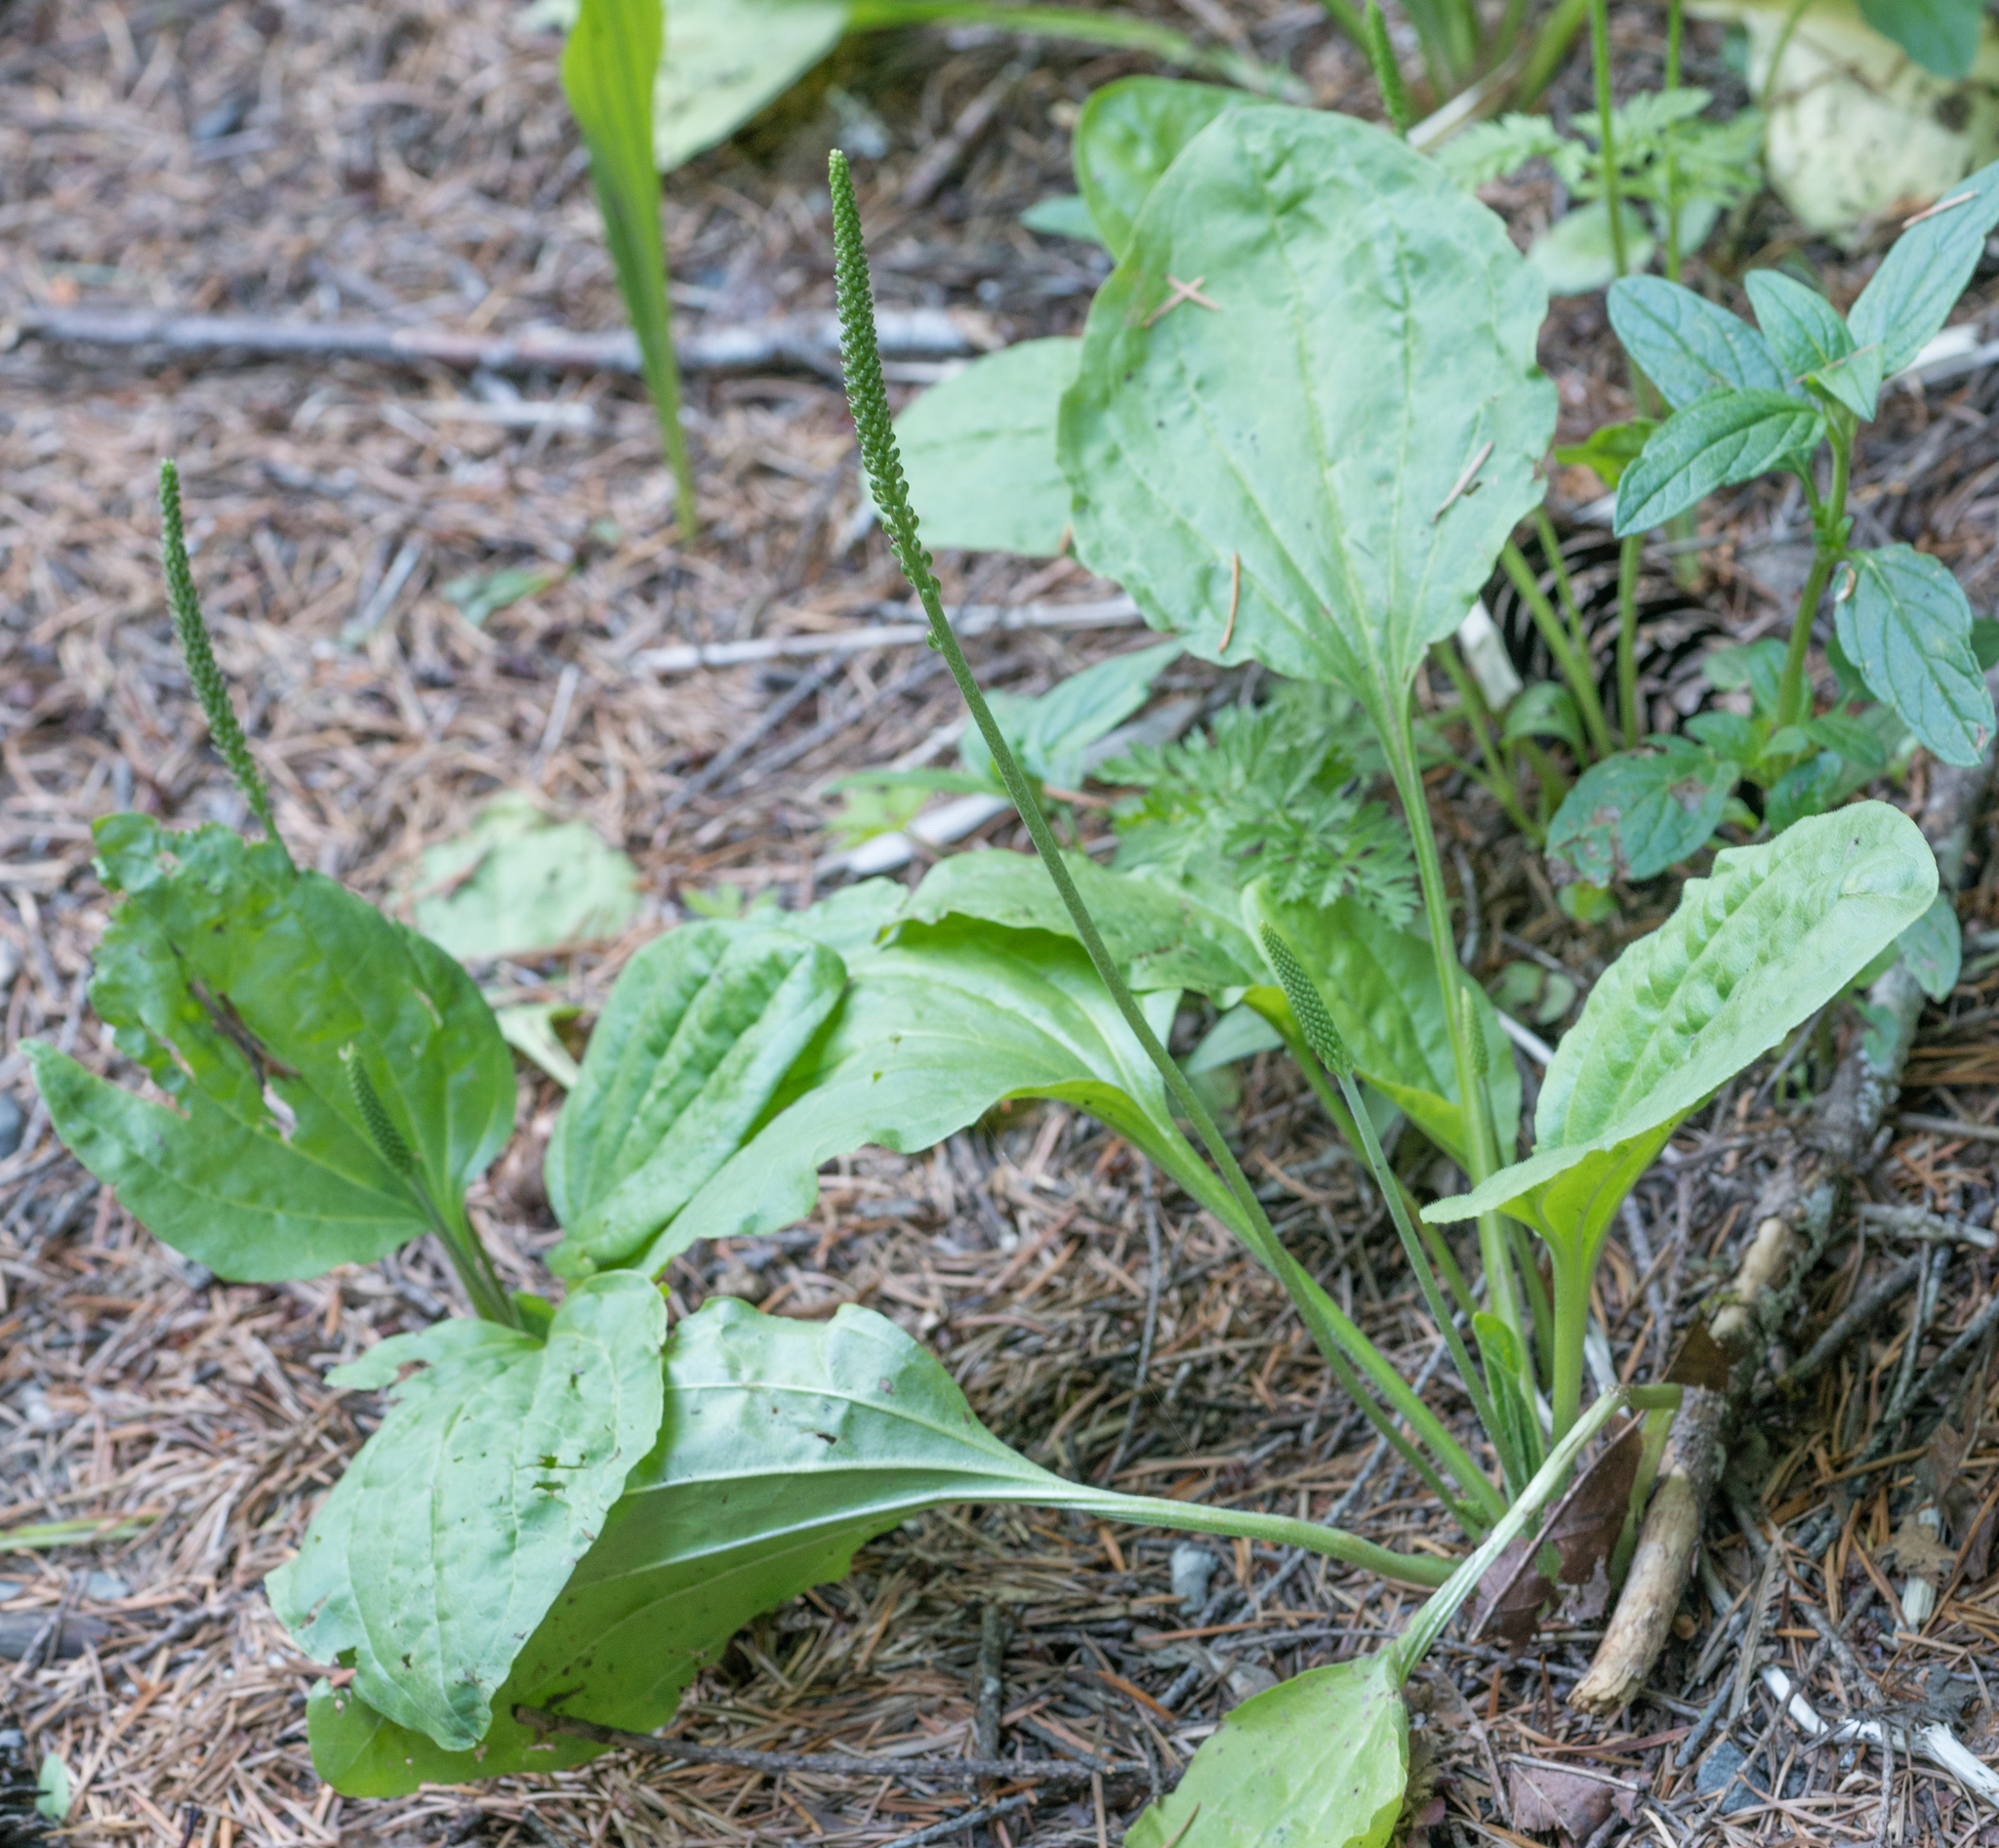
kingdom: Plantae
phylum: Tracheophyta
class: Magnoliopsida
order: Lamiales
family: Plantaginaceae
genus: Plantago
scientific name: Plantago major
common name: Common plantain
